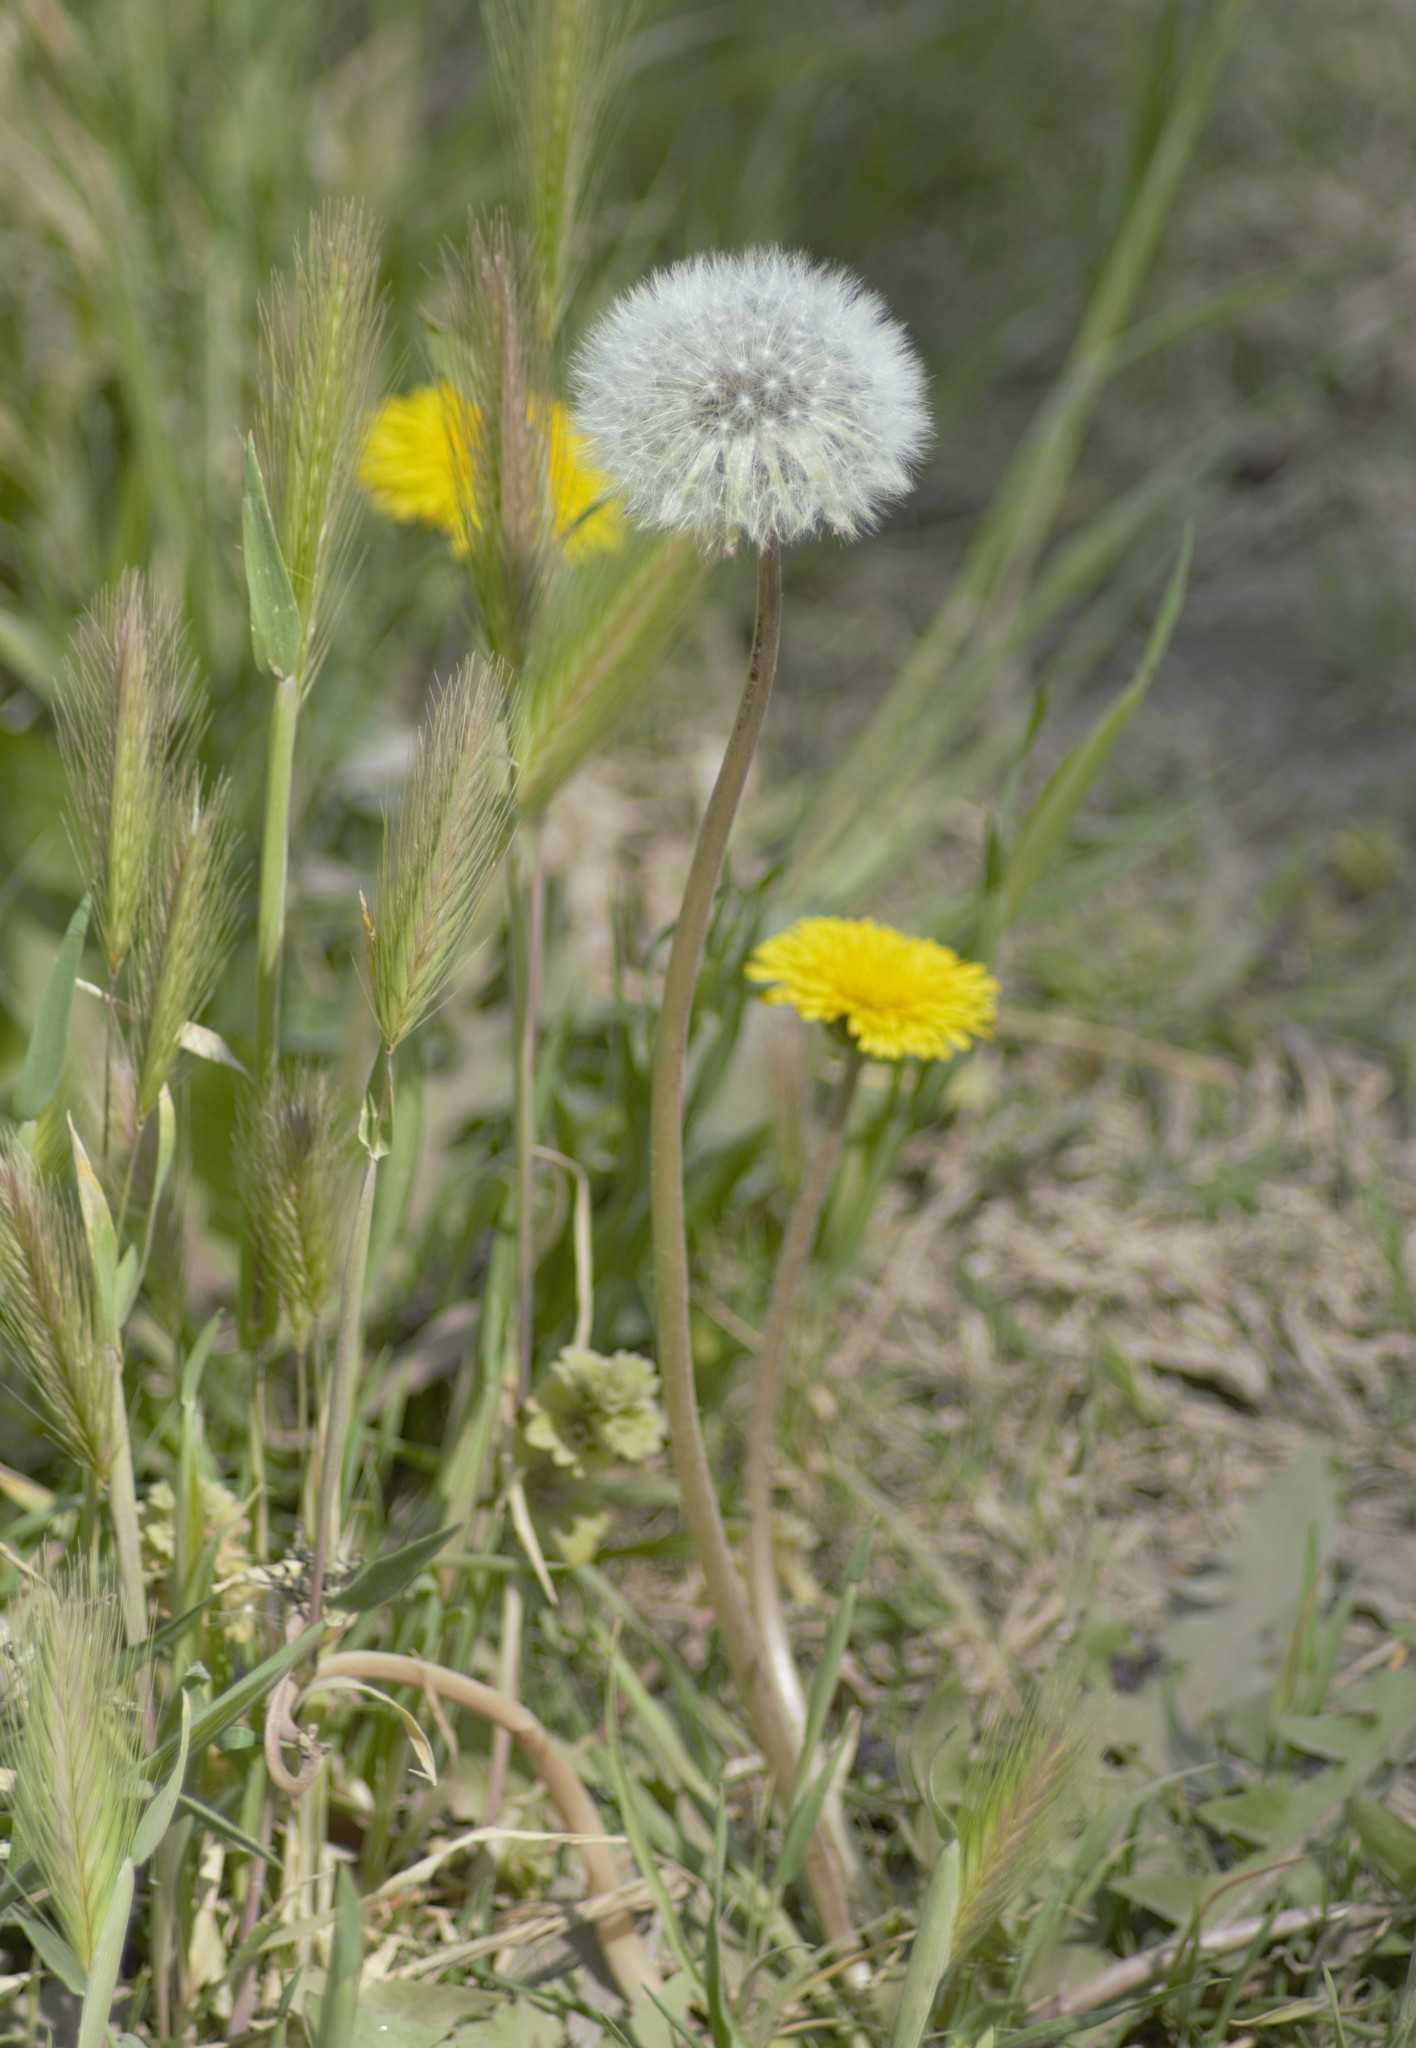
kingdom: Plantae
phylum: Tracheophyta
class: Magnoliopsida
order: Asterales
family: Asteraceae
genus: Taraxacum
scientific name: Taraxacum officinale
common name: Common dandelion
